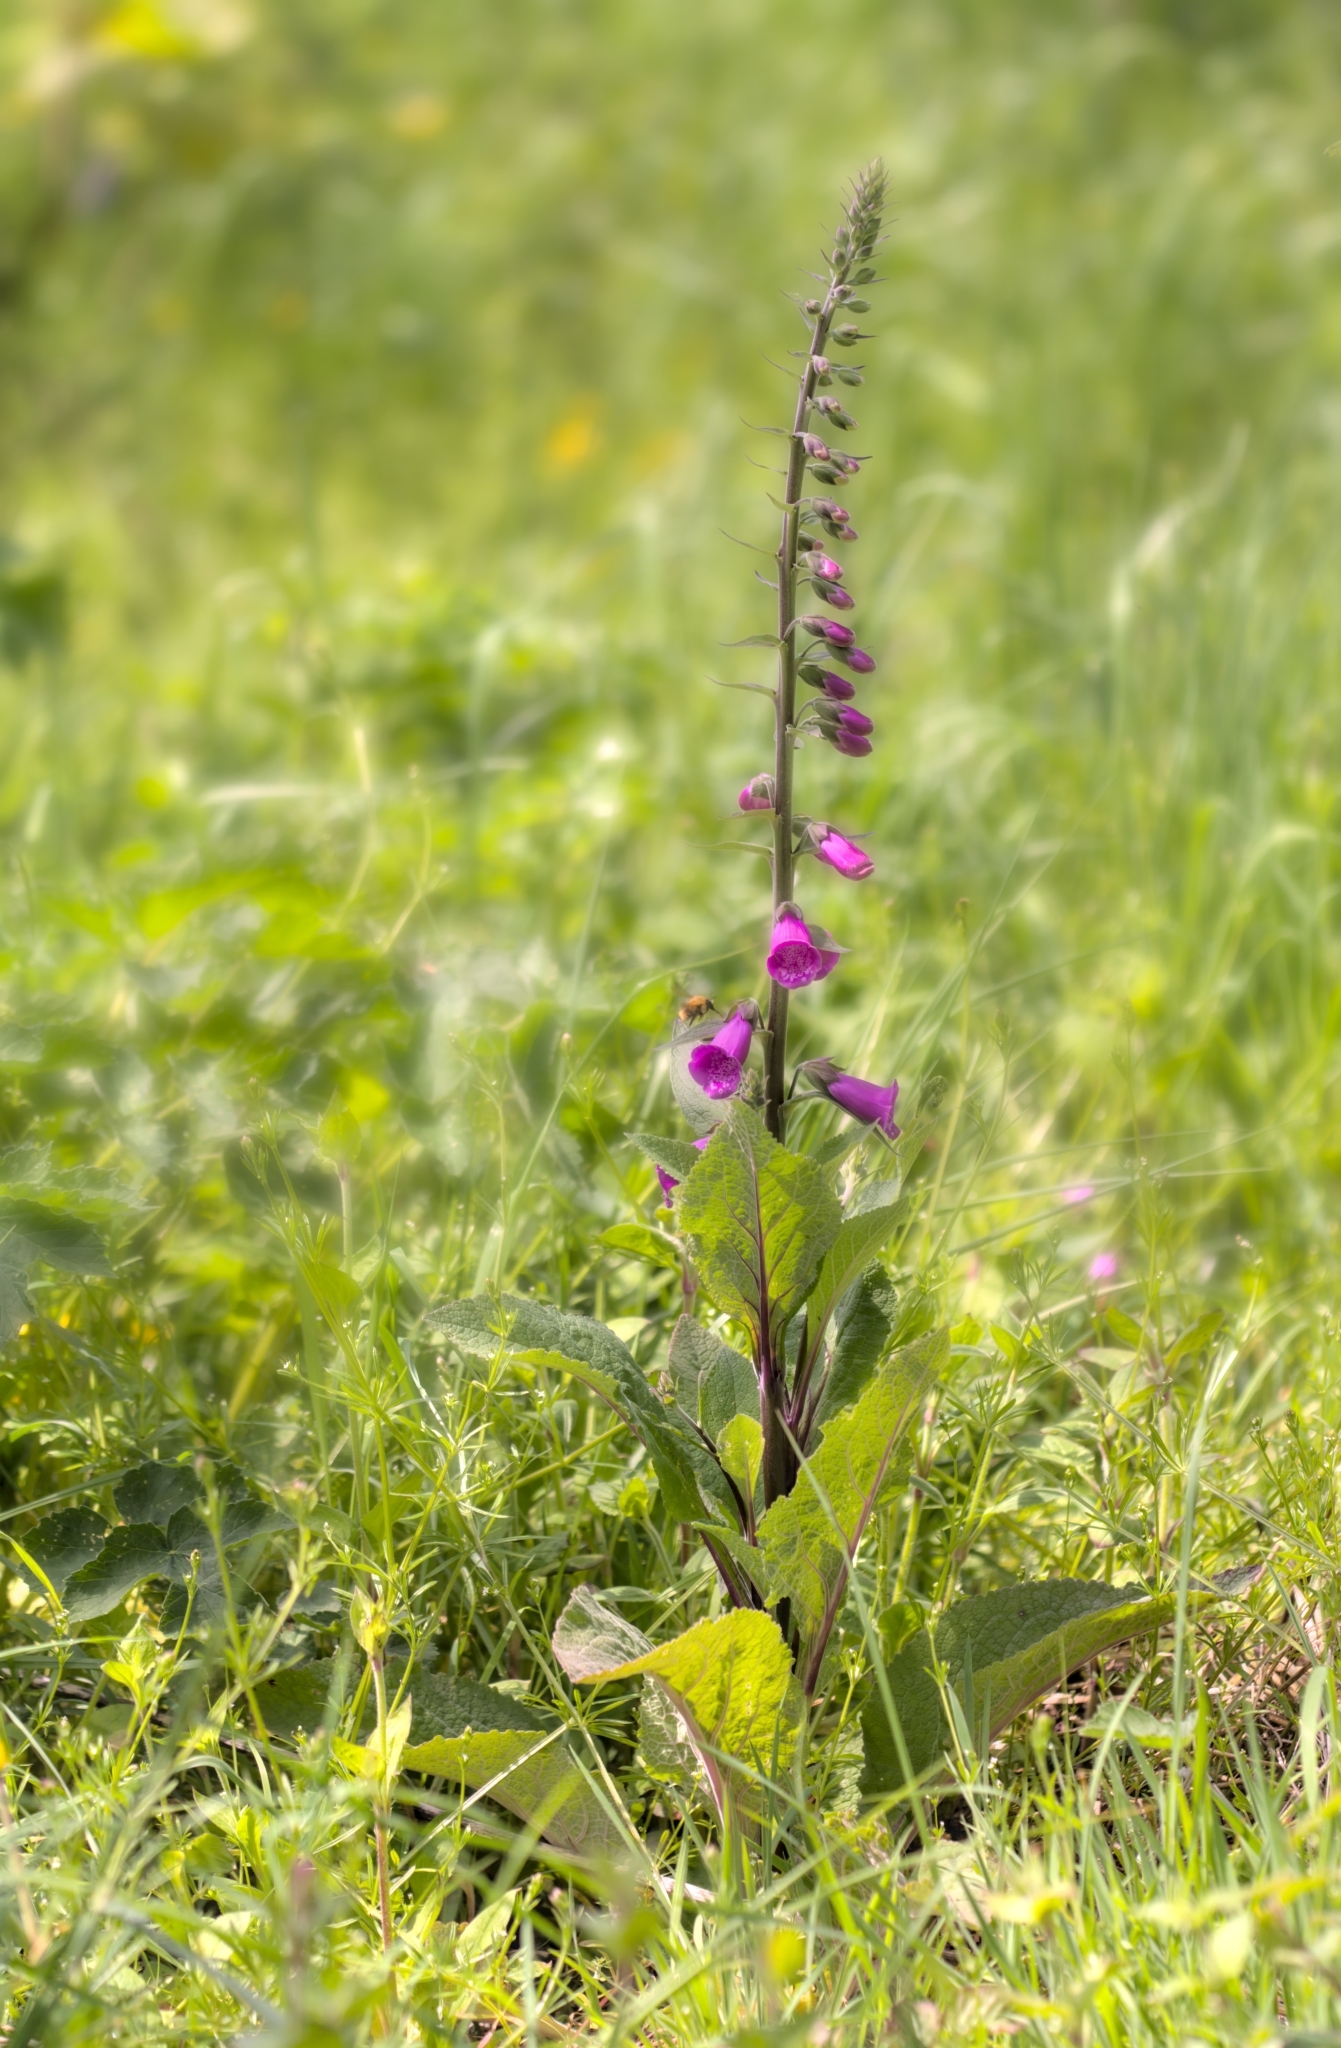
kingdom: Plantae
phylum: Tracheophyta
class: Magnoliopsida
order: Lamiales
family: Plantaginaceae
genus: Digitalis
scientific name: Digitalis purpurea
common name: Foxglove
